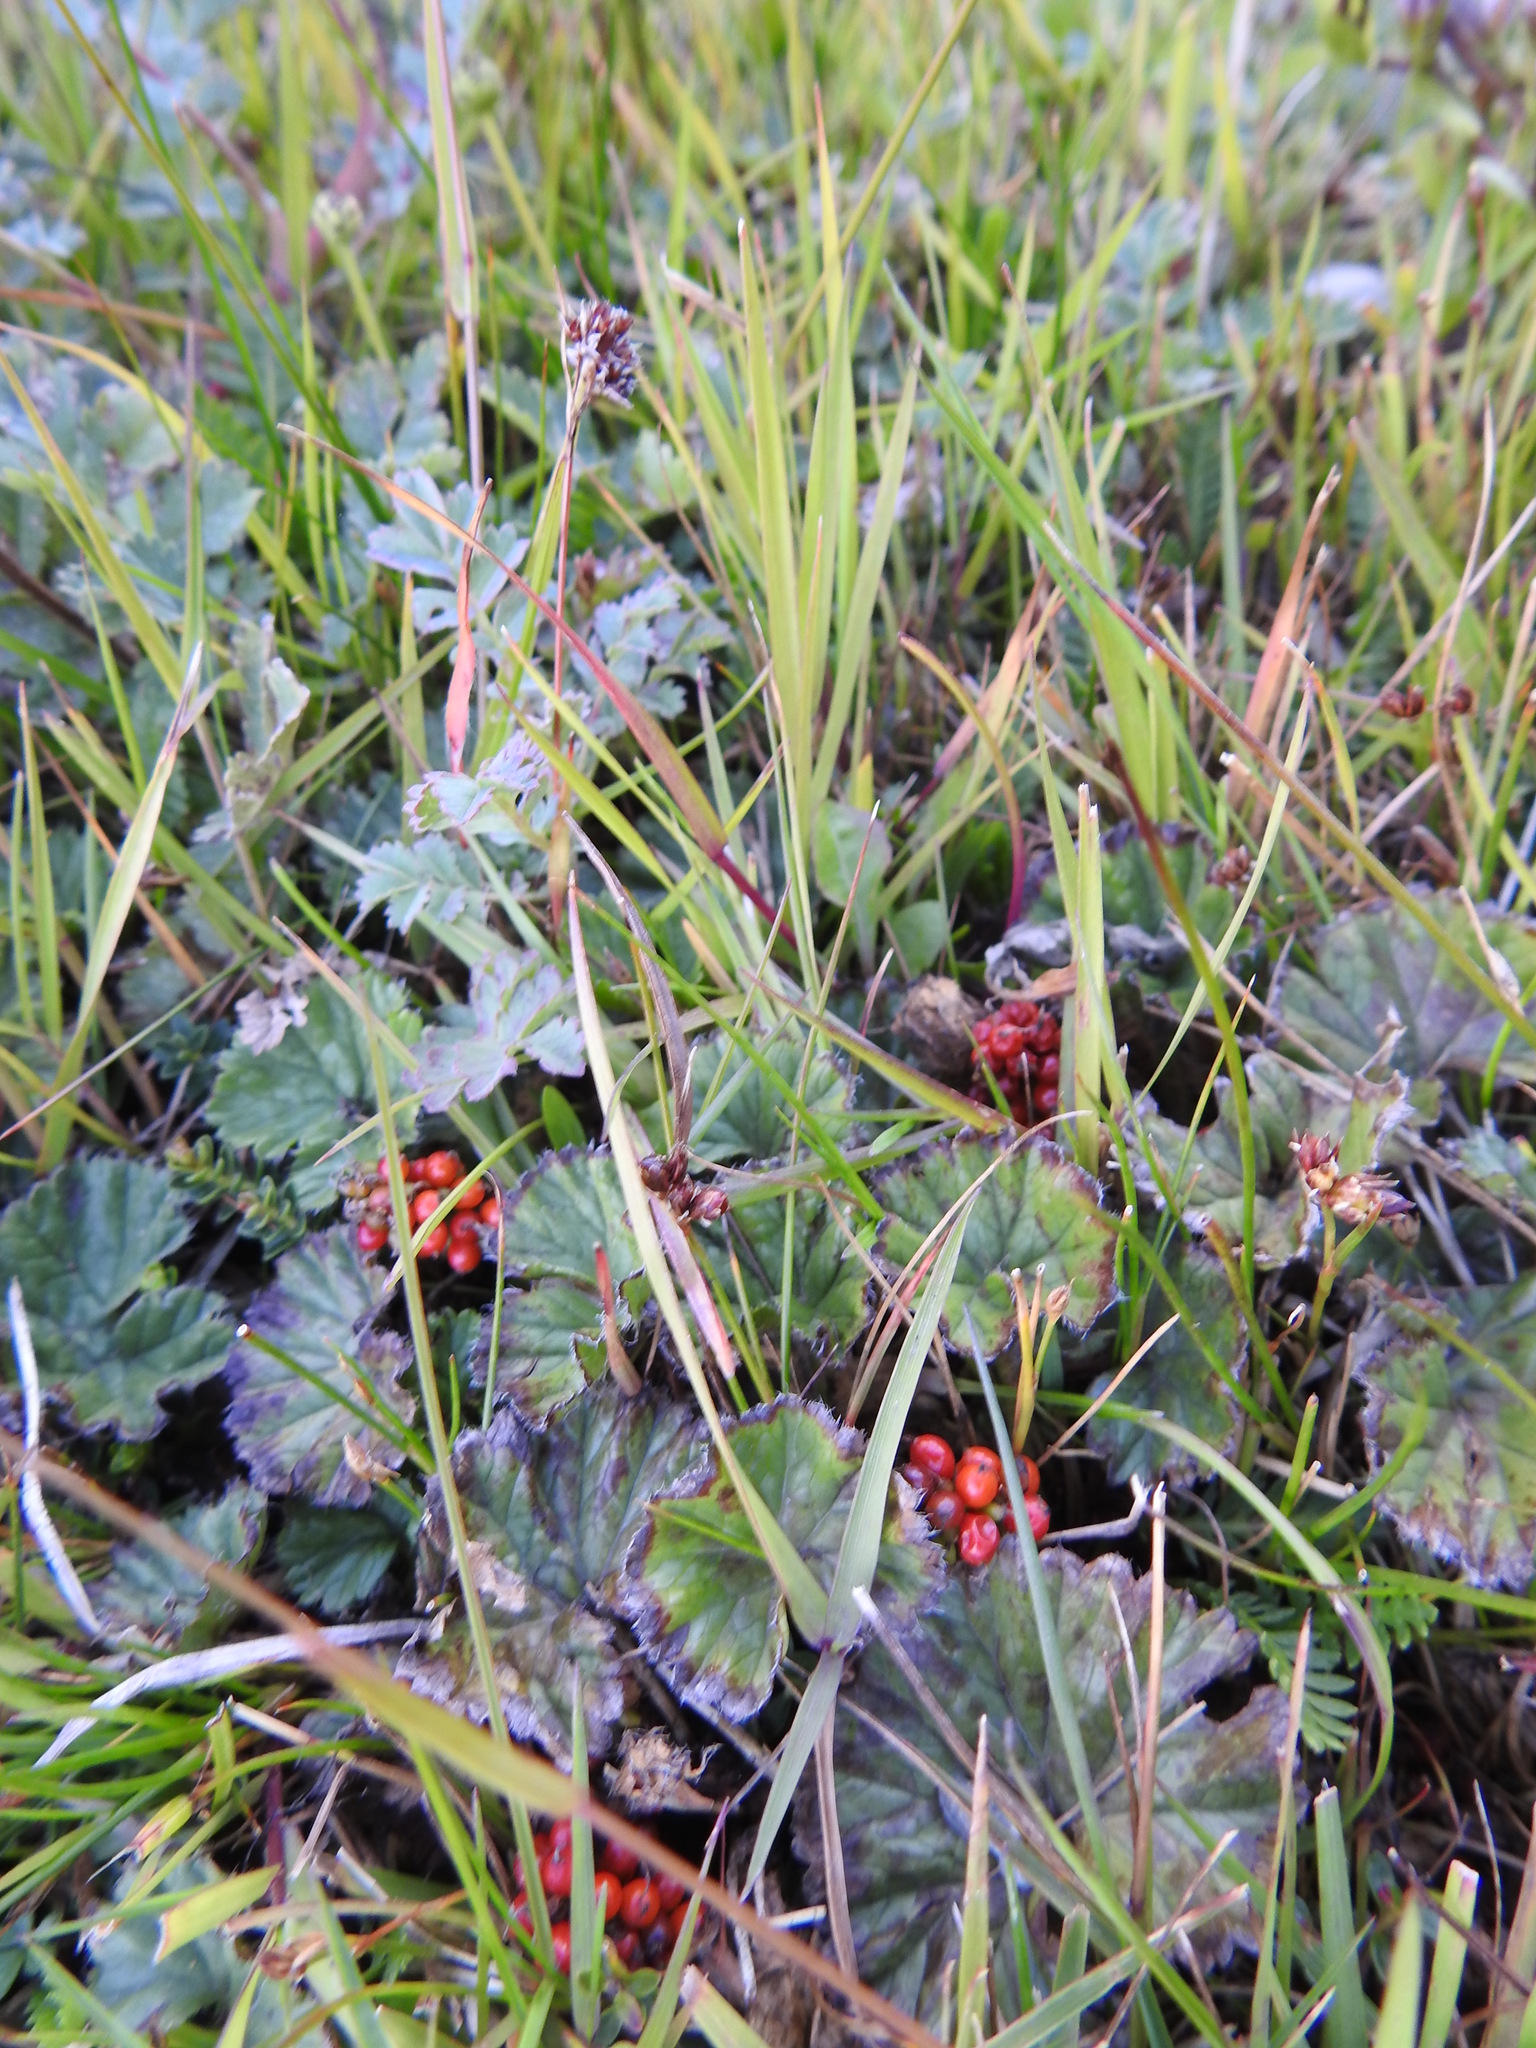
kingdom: Plantae
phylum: Tracheophyta
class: Magnoliopsida
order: Gunnerales
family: Gunneraceae
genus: Gunnera
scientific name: Gunnera magellanica
